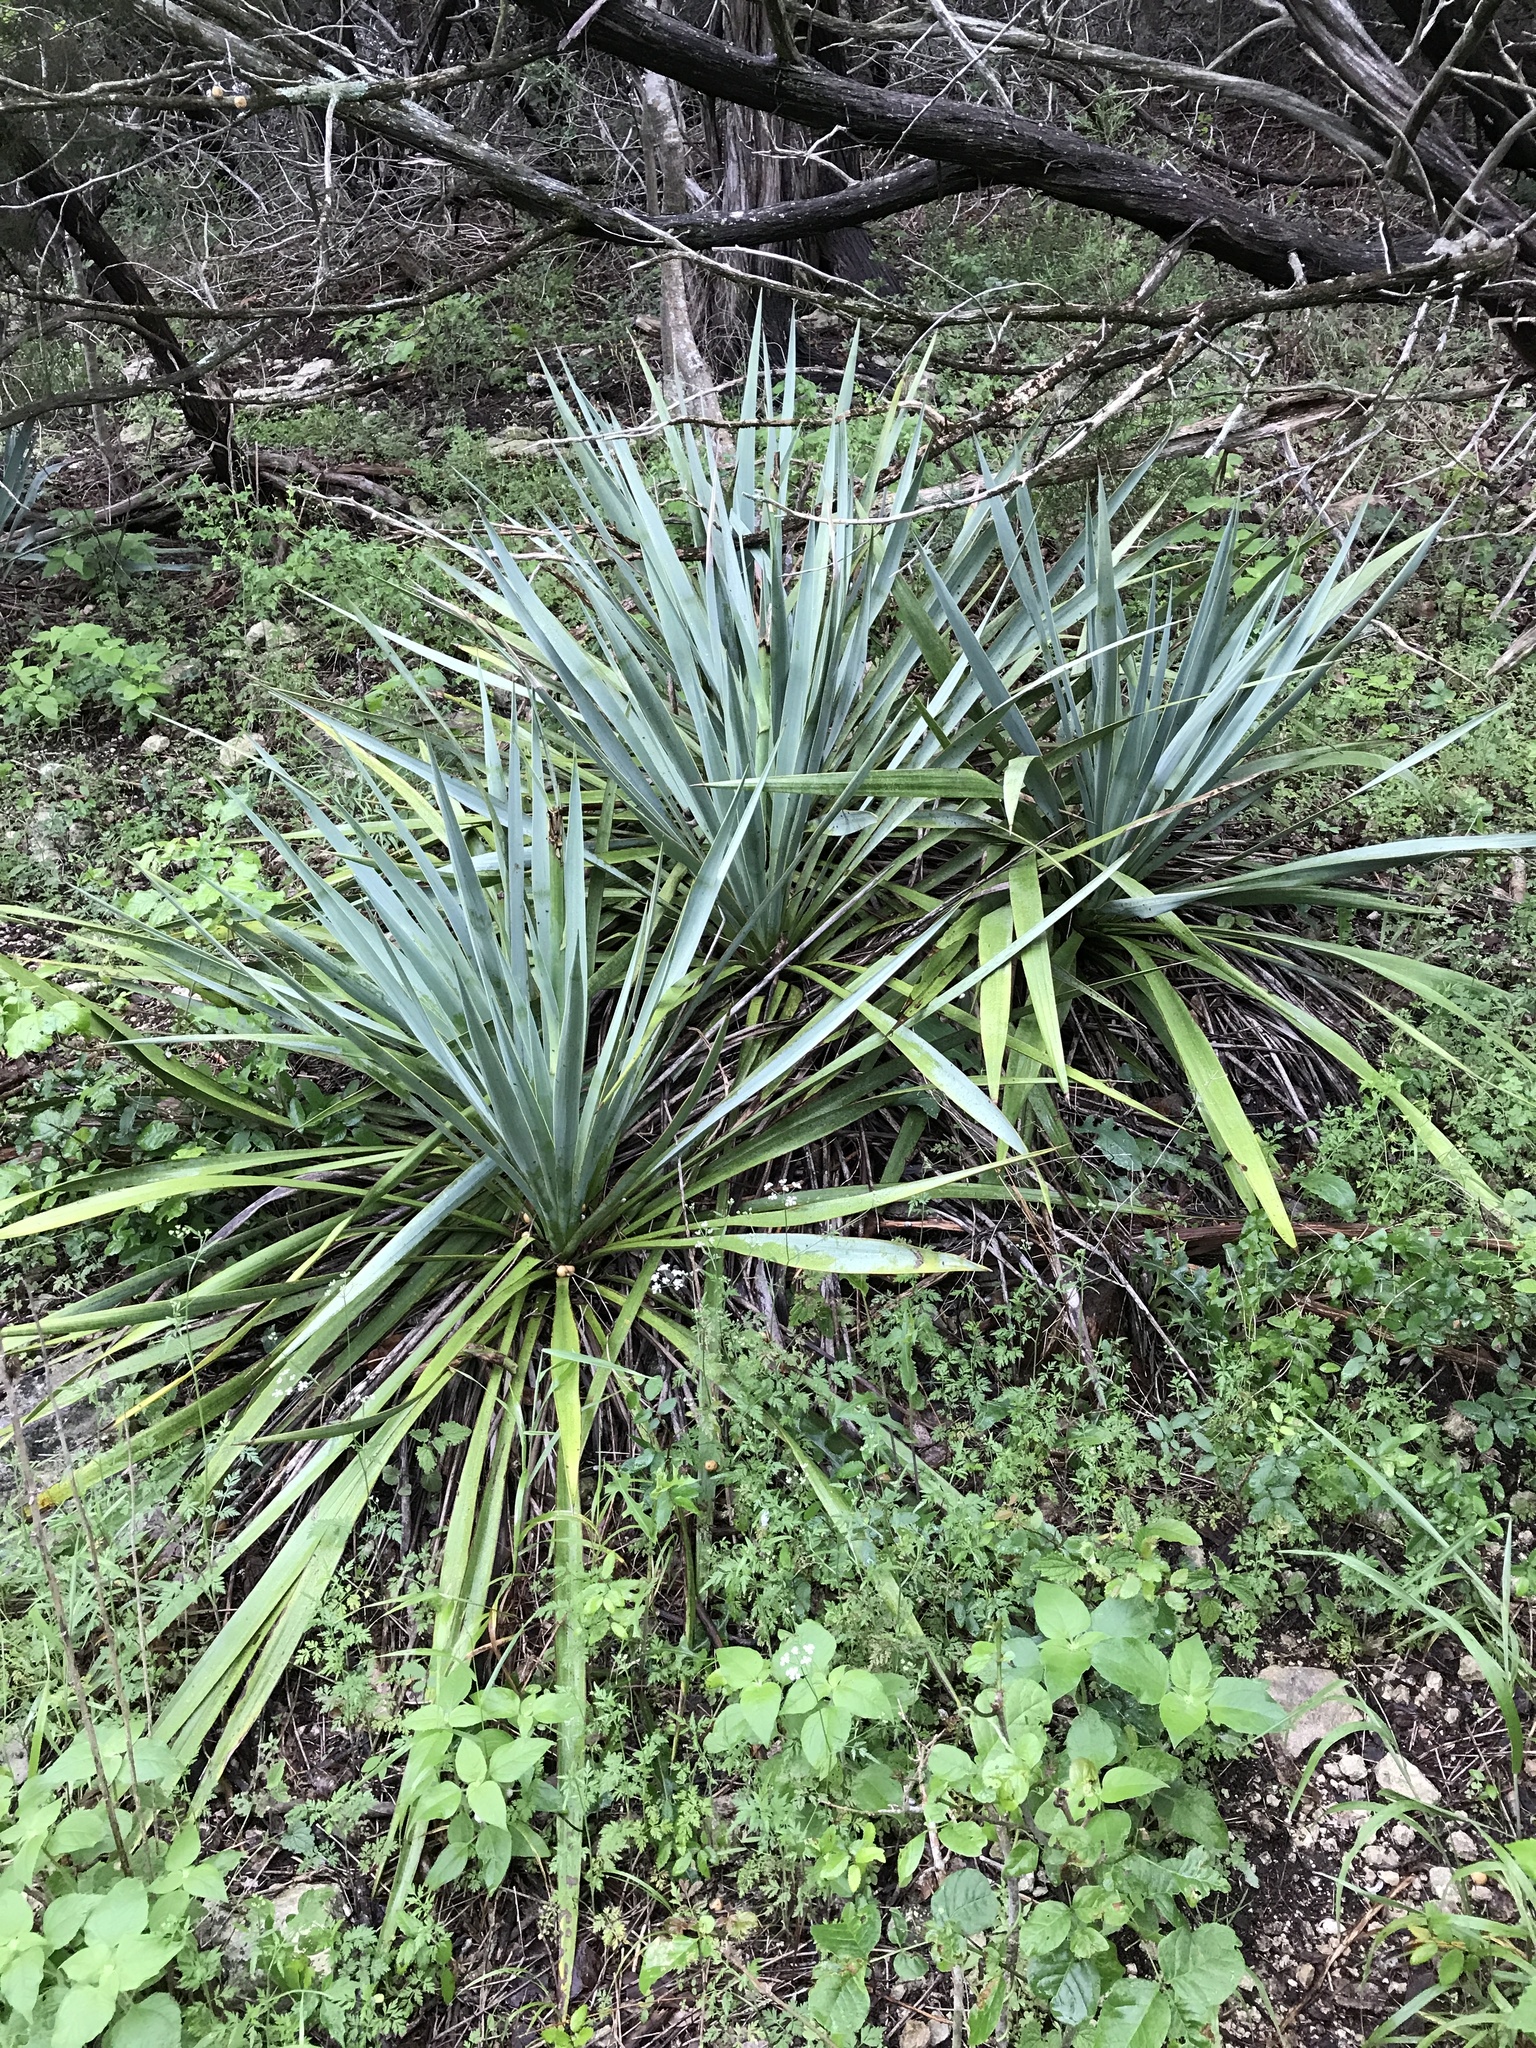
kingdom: Plantae
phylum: Tracheophyta
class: Liliopsida
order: Asparagales
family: Asparagaceae
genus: Yucca
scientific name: Yucca pallida
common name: Pale leaf yucca
